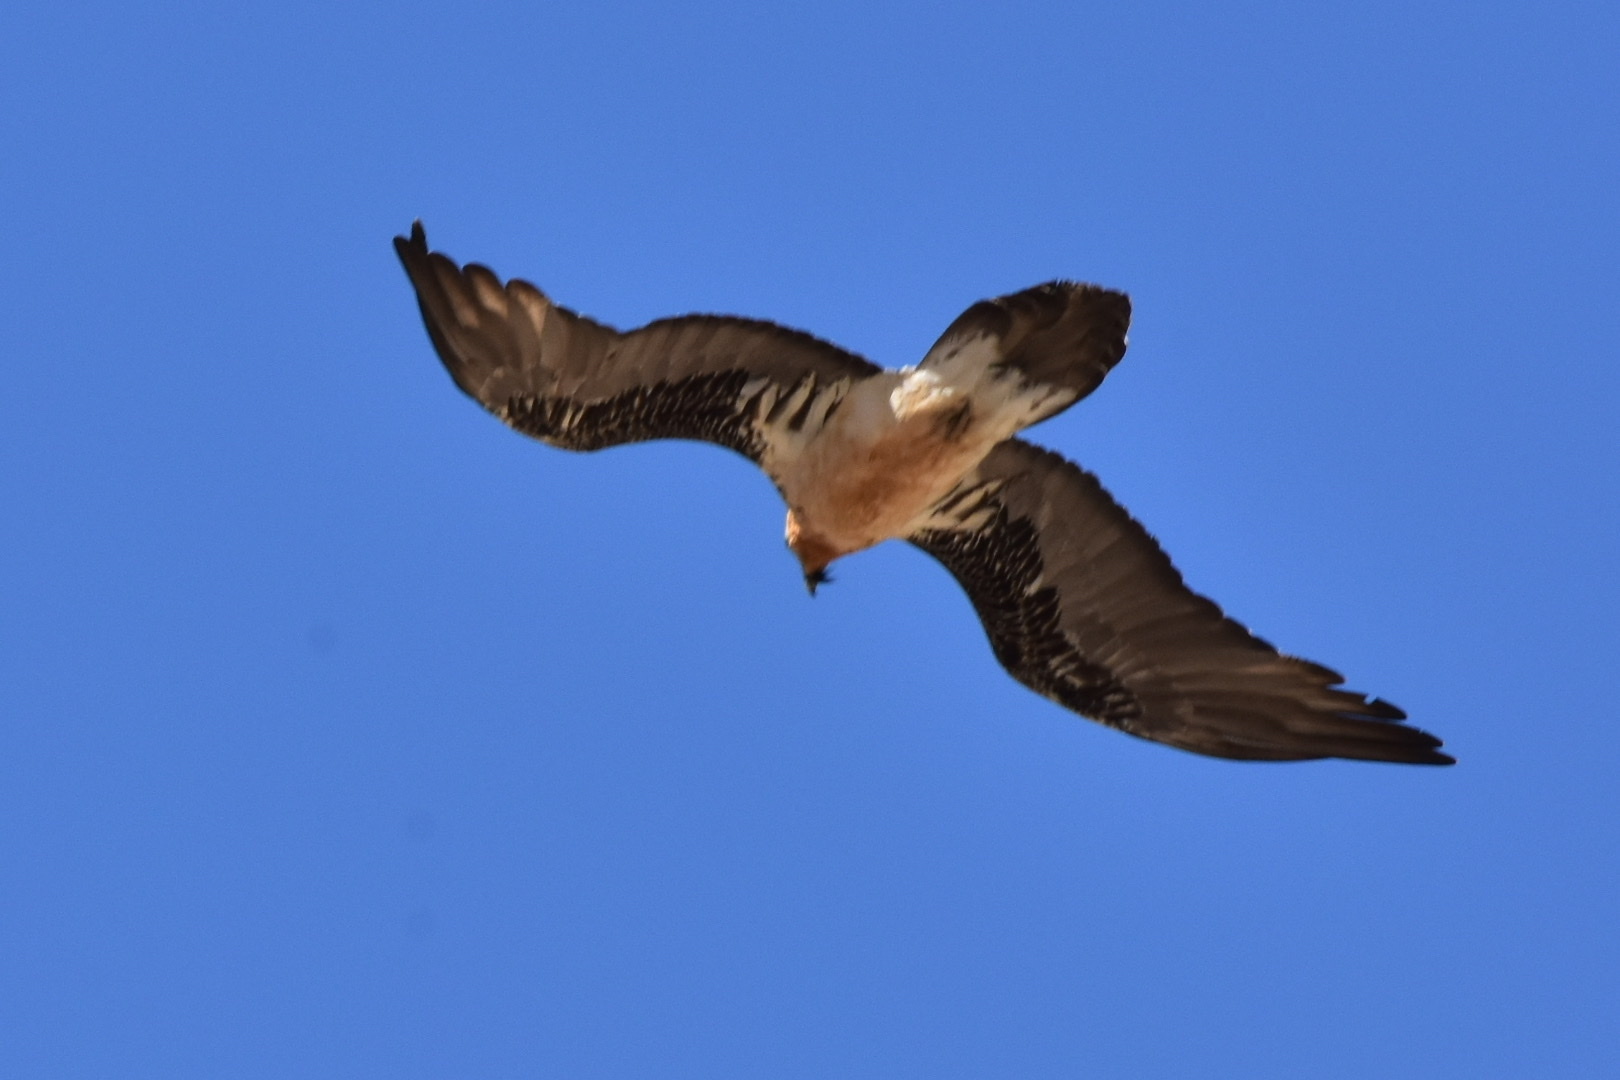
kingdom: Animalia
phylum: Chordata
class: Aves
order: Accipitriformes
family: Accipitridae
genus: Gypaetus
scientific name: Gypaetus barbatus
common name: Bearded vulture
